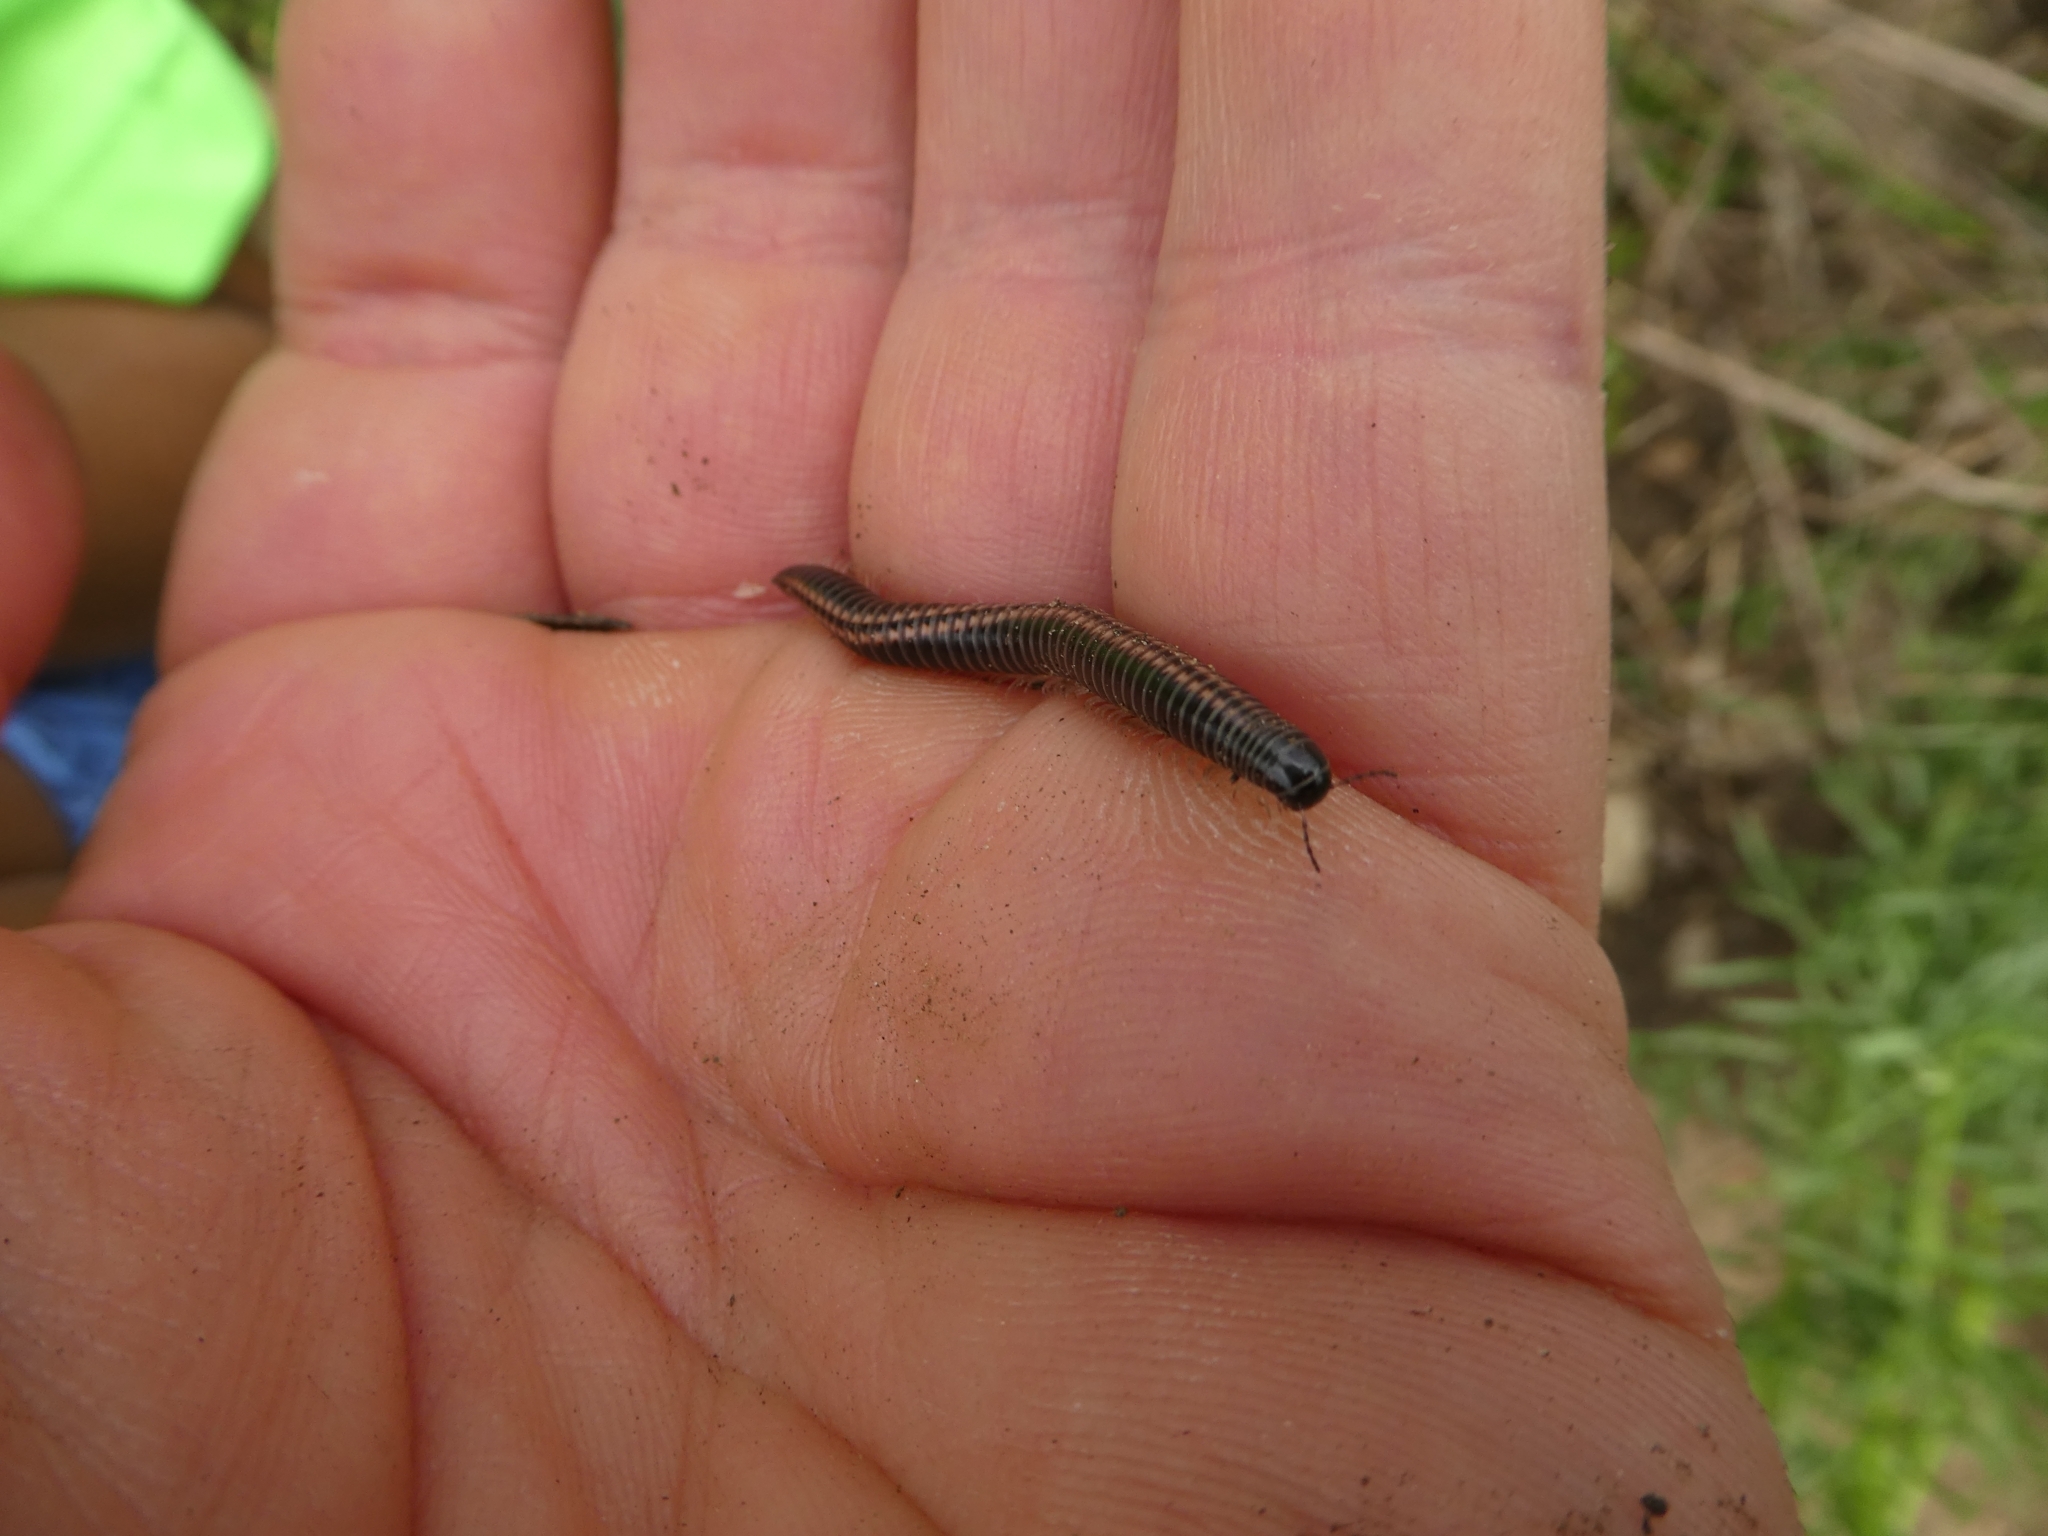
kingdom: Animalia
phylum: Arthropoda
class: Diplopoda
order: Julida
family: Julidae
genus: Ommatoiulus
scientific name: Ommatoiulus sabulosus
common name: Striped millipede
